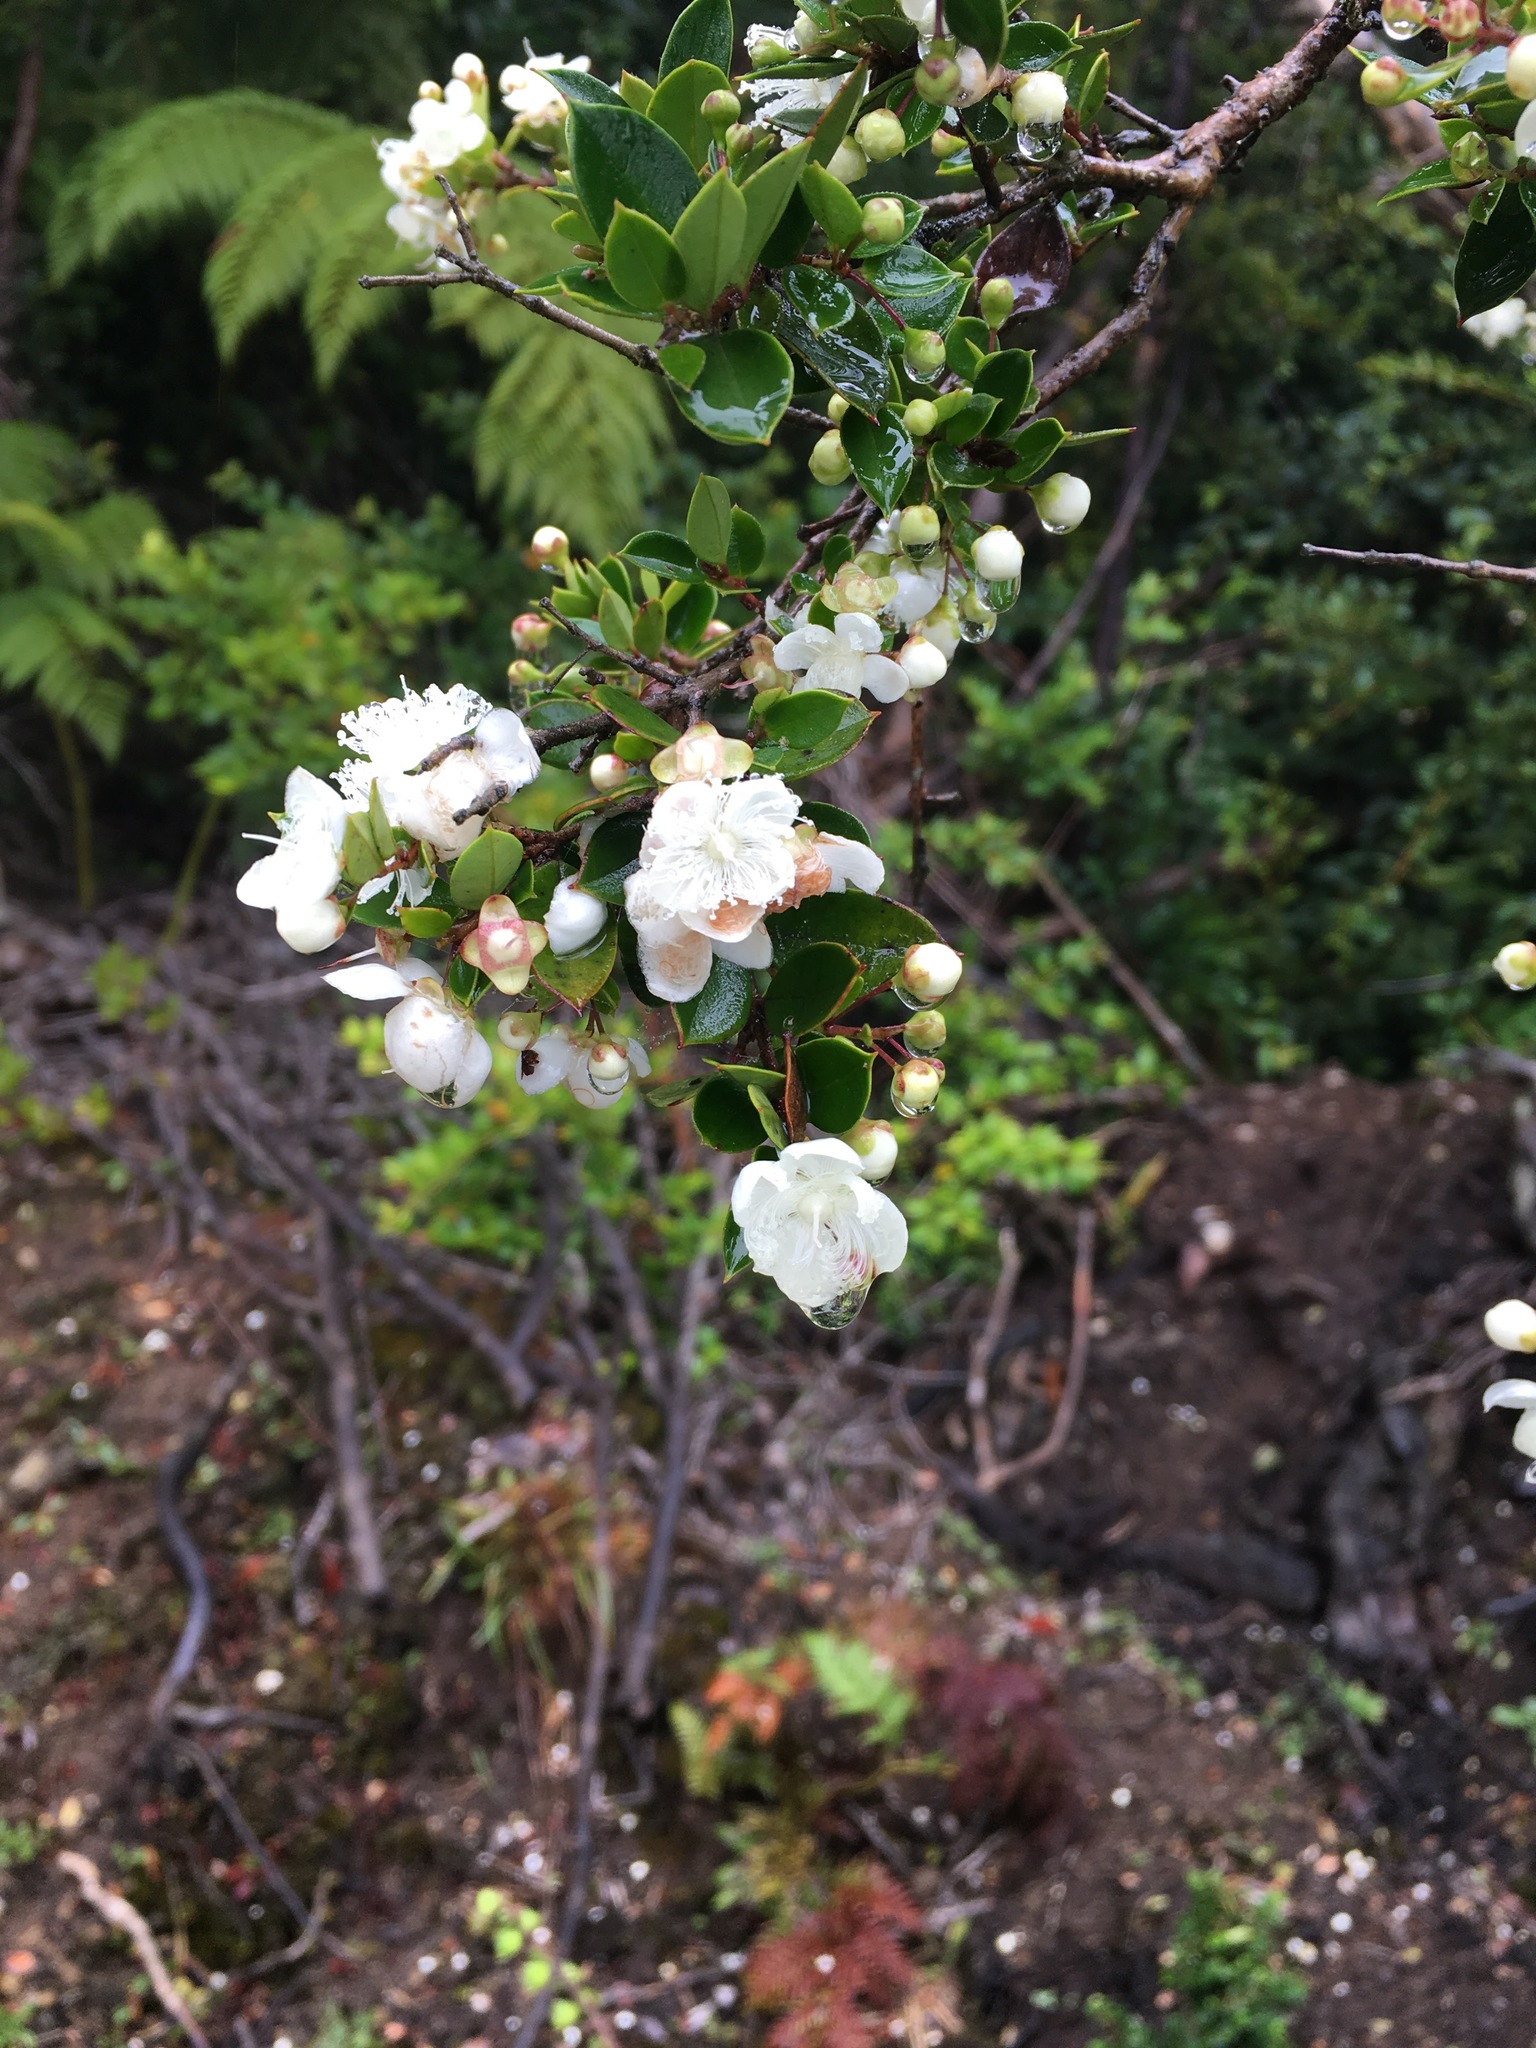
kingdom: Plantae
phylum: Tracheophyta
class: Magnoliopsida
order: Myrtales
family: Myrtaceae
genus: Luma
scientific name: Luma apiculata
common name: Chilean myrtle
